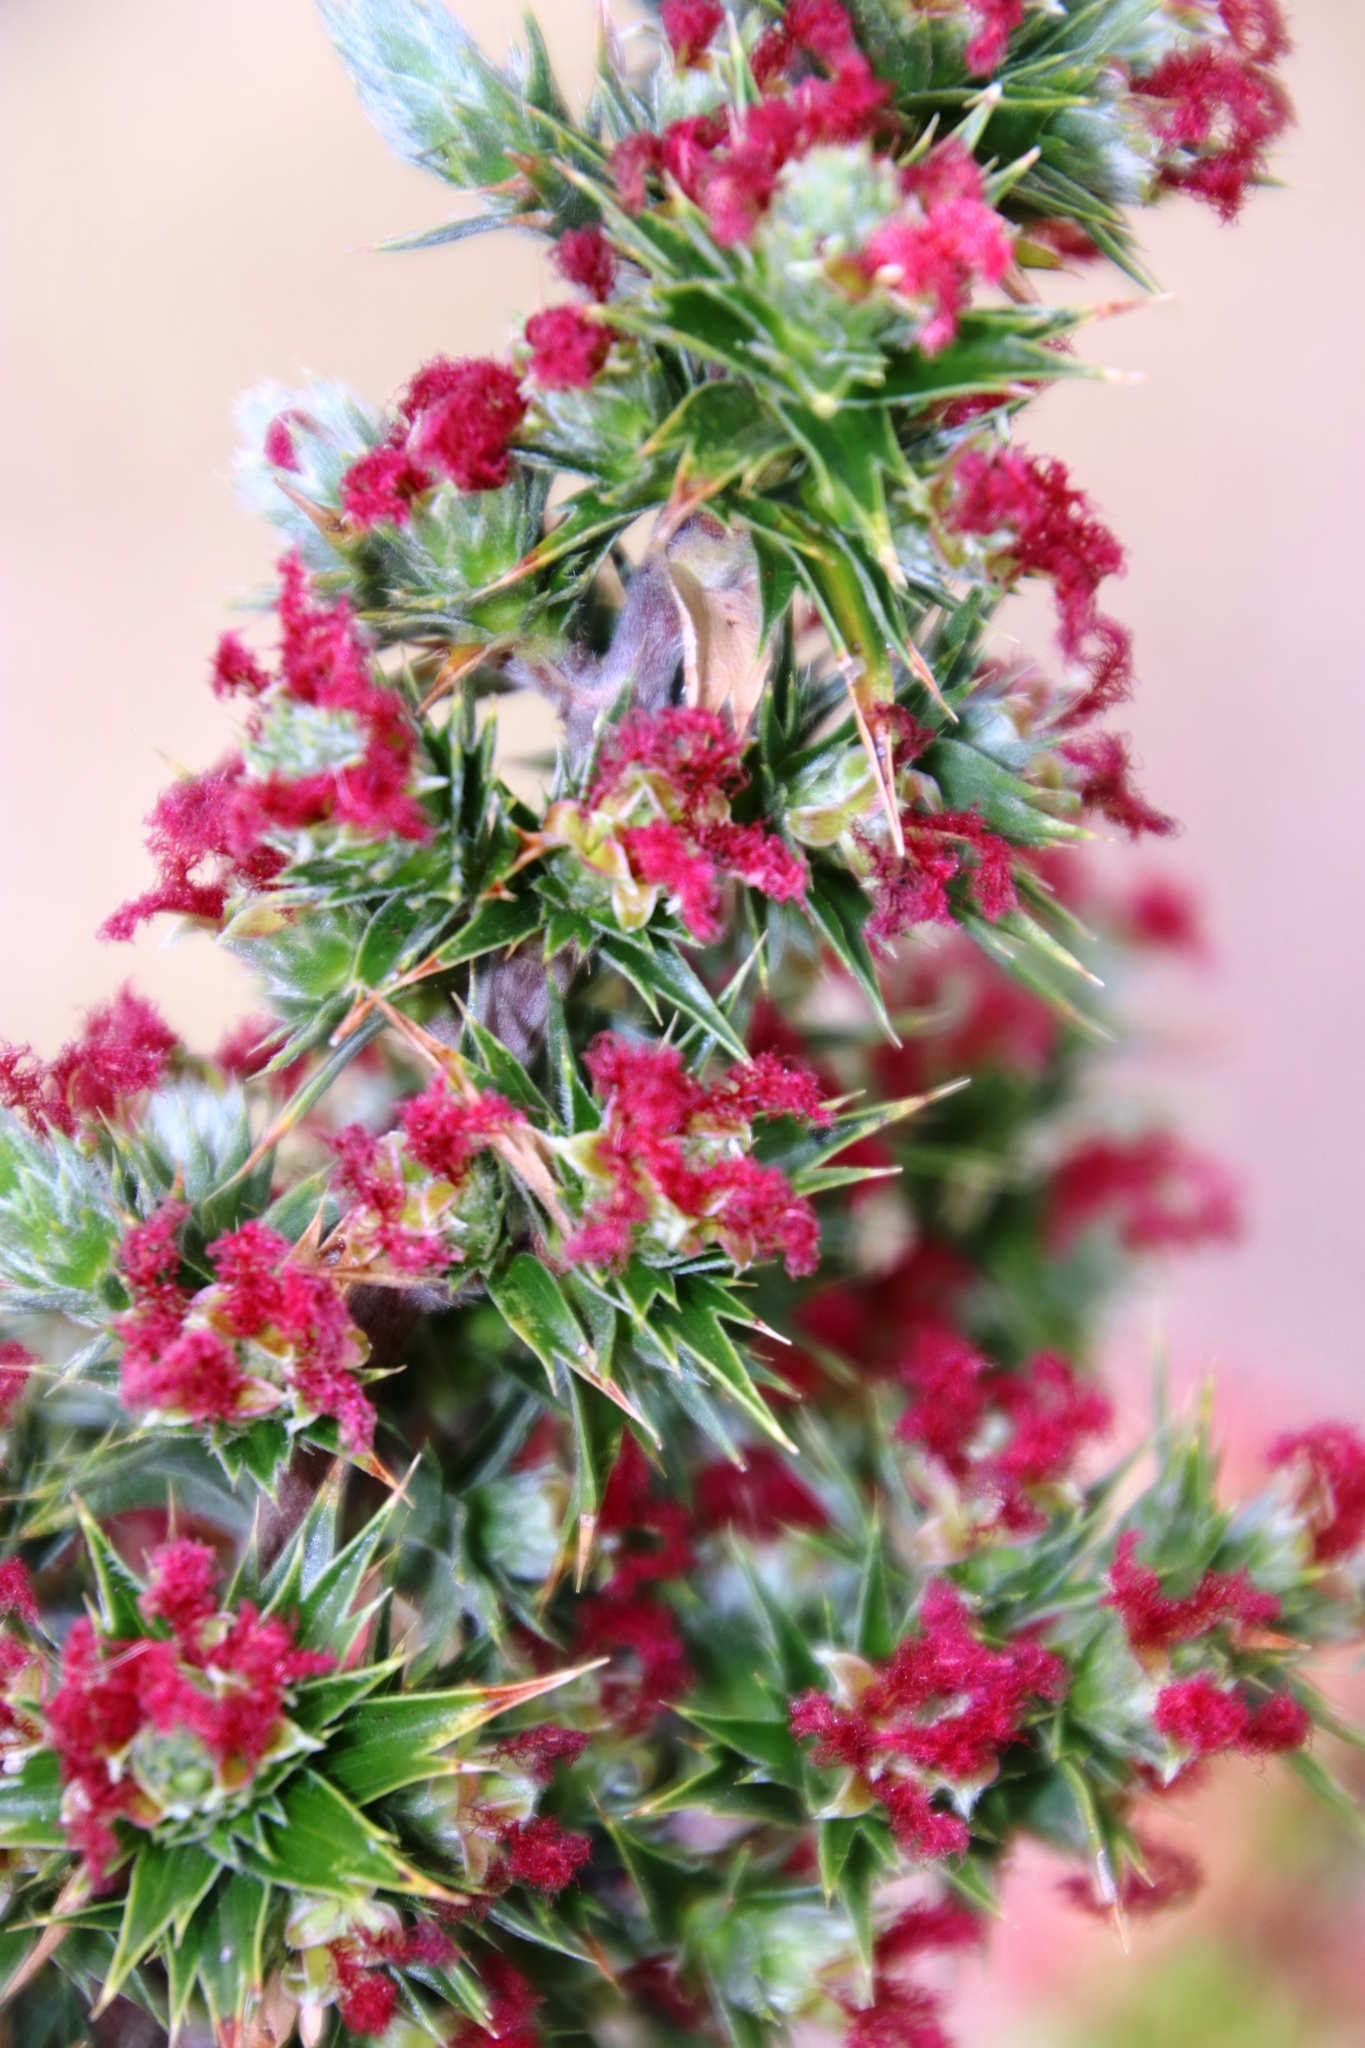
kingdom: Plantae
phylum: Tracheophyta
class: Magnoliopsida
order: Rosales
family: Rosaceae
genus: Cliffortia
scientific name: Cliffortia ruscifolia
